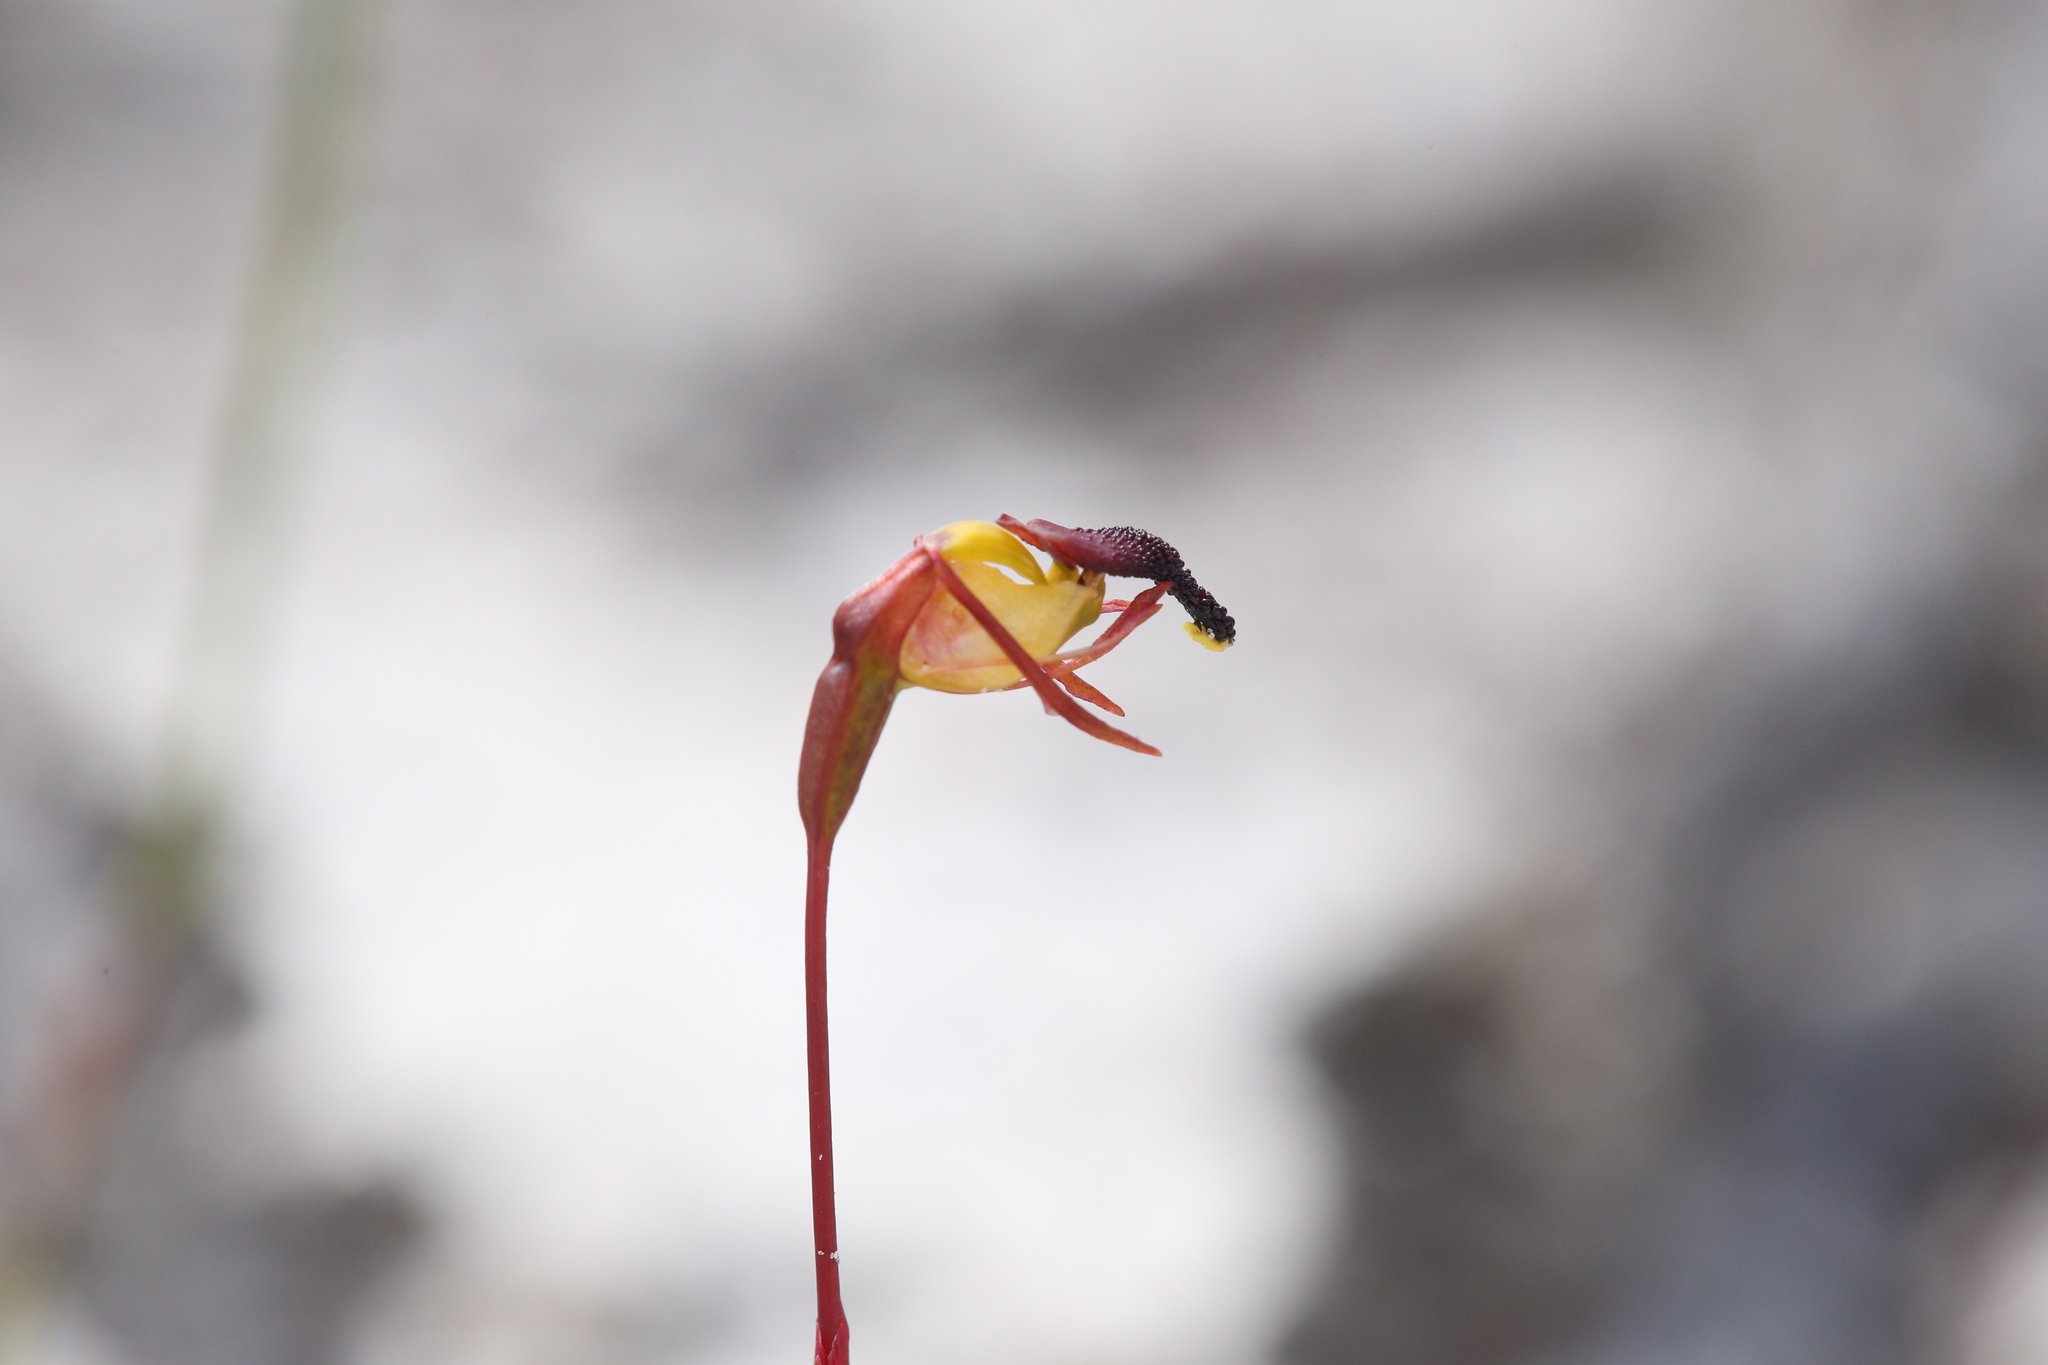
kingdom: Plantae
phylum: Tracheophyta
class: Liliopsida
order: Asparagales
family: Orchidaceae
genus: Caleana
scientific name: Caleana nigrita
